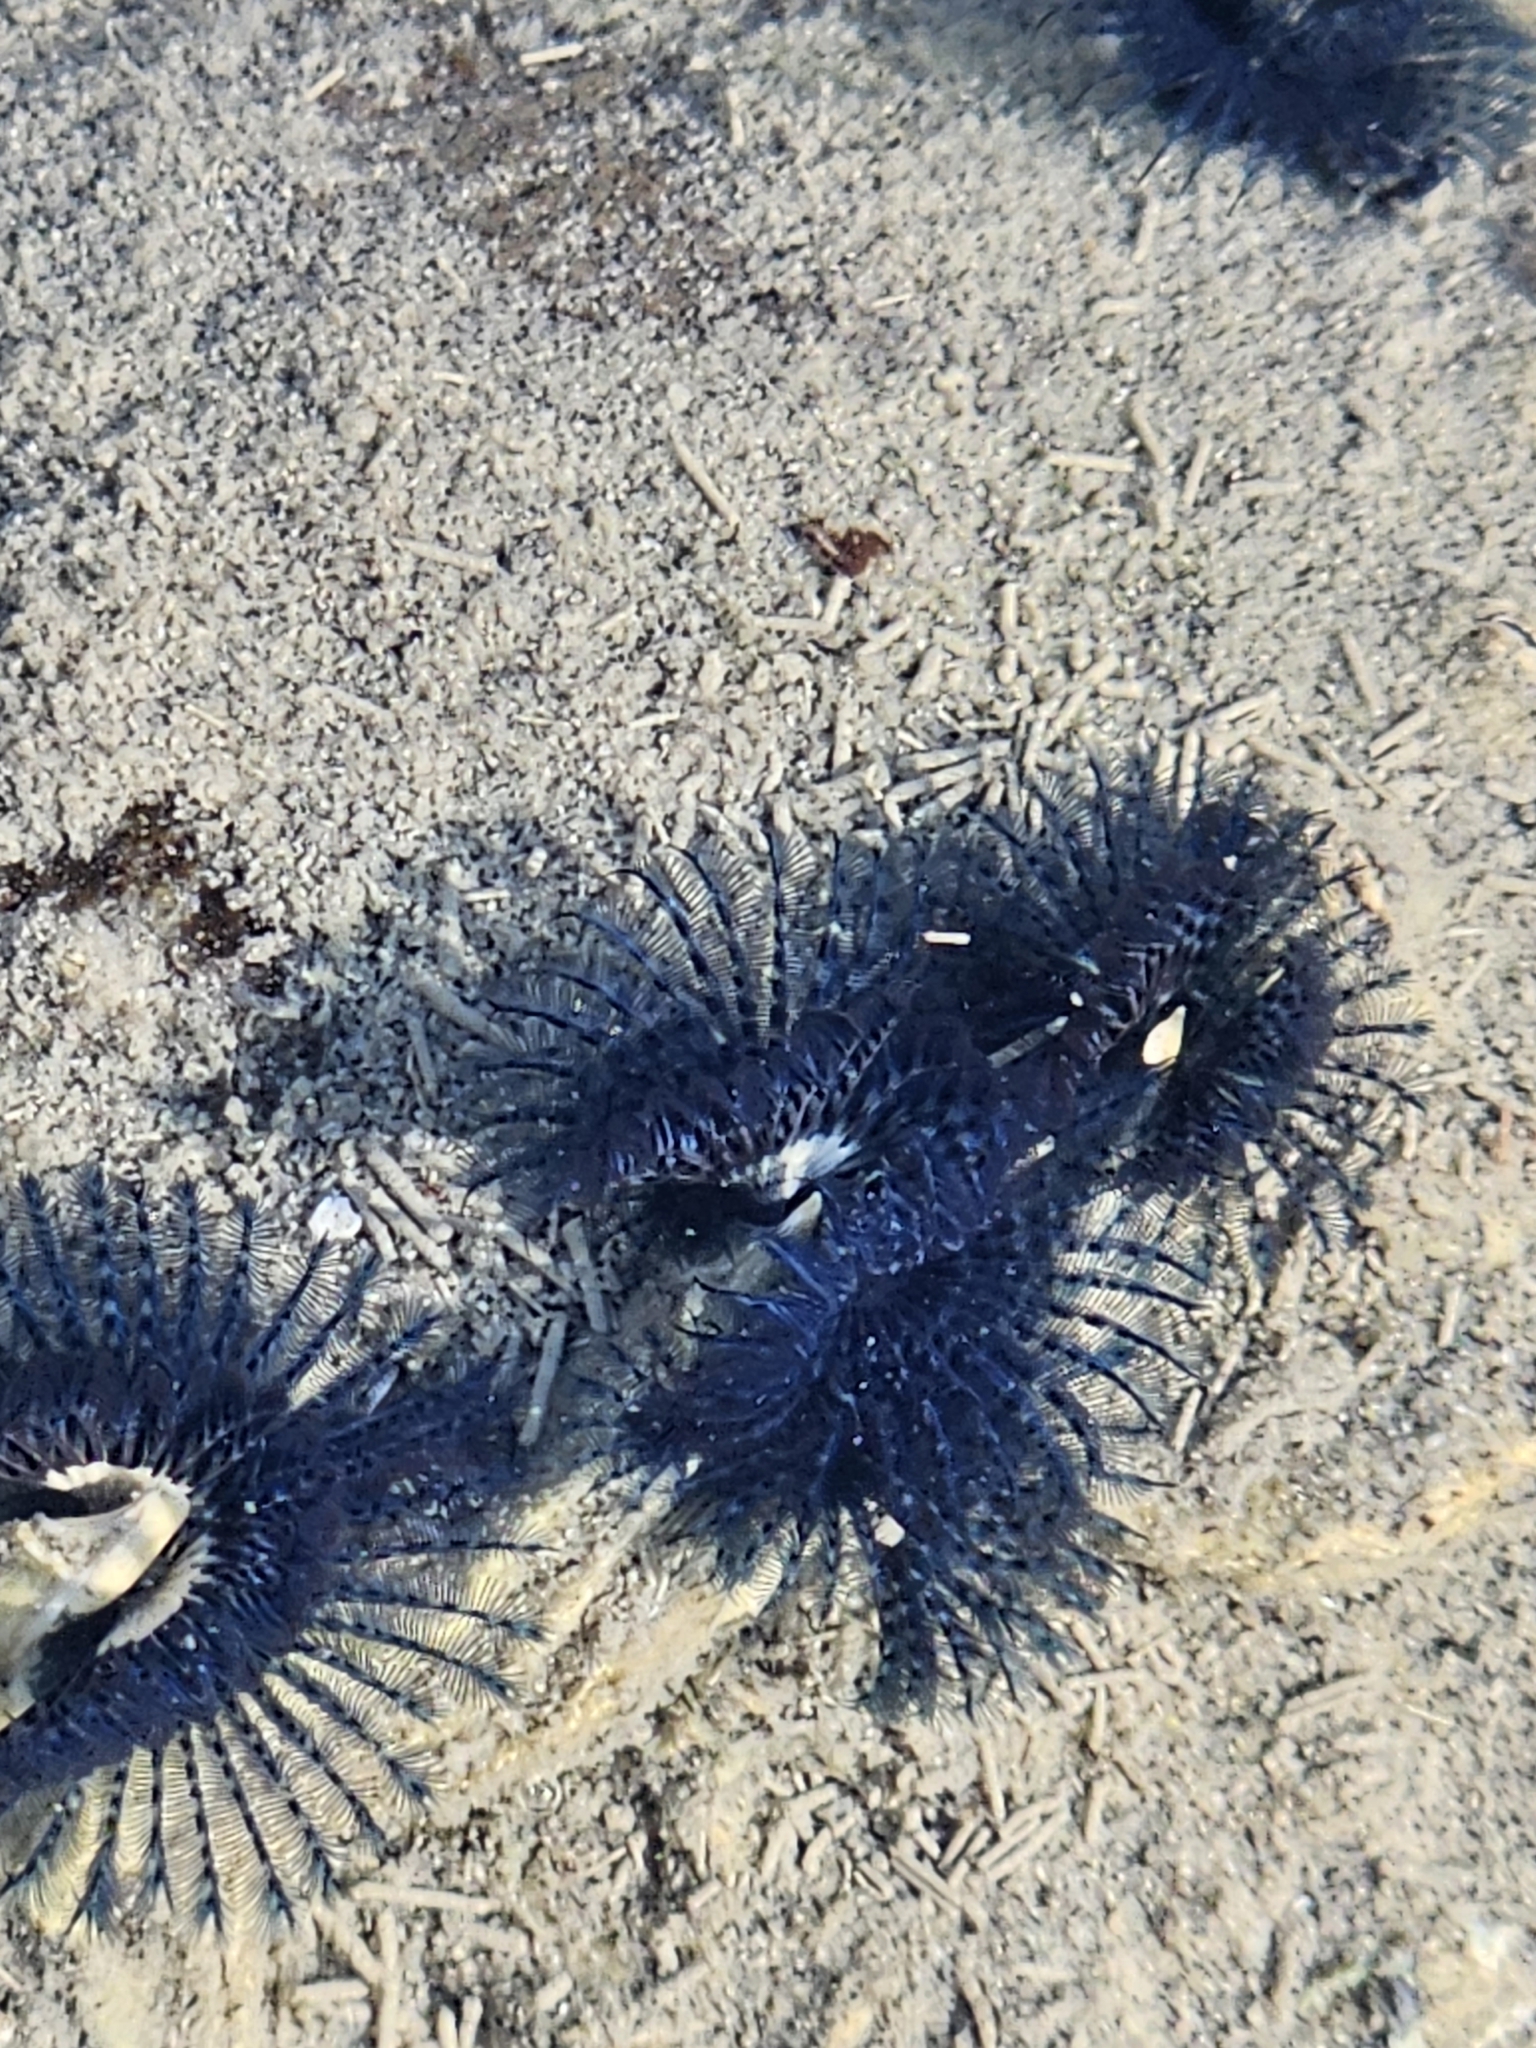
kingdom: Animalia
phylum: Annelida
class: Polychaeta
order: Sabellida
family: Serpulidae
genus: Spirobranchus
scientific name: Spirobranchus cariniferus
